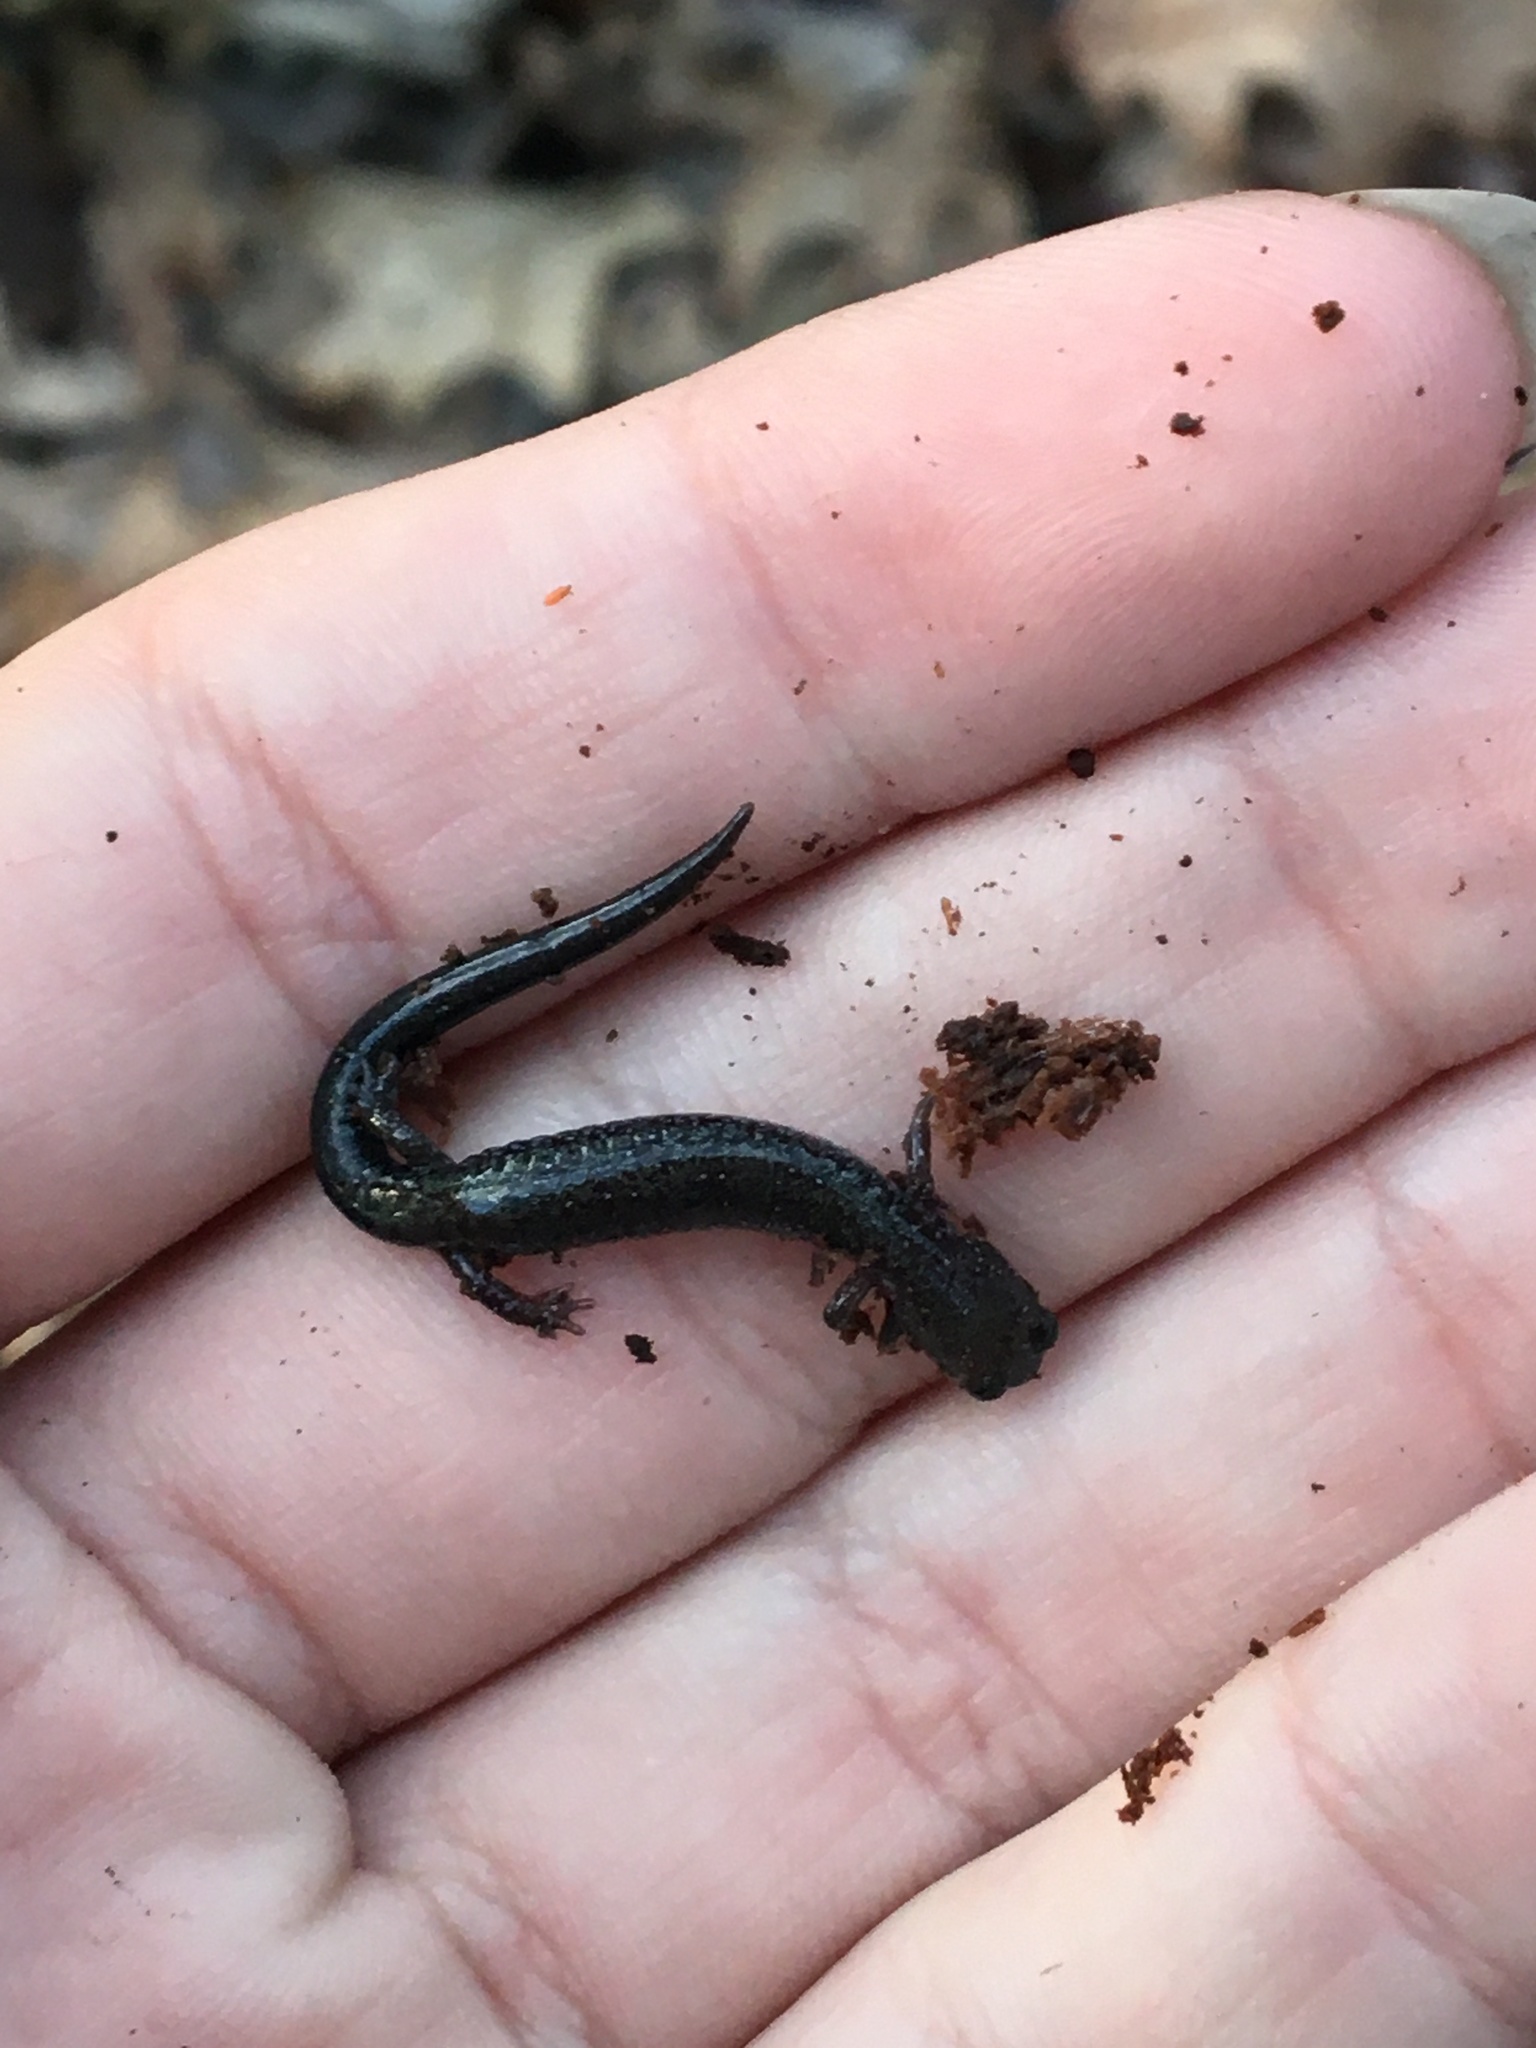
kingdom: Animalia
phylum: Chordata
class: Amphibia
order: Caudata
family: Plethodontidae
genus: Plethodon
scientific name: Plethodon cinereus
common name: Redback salamander
